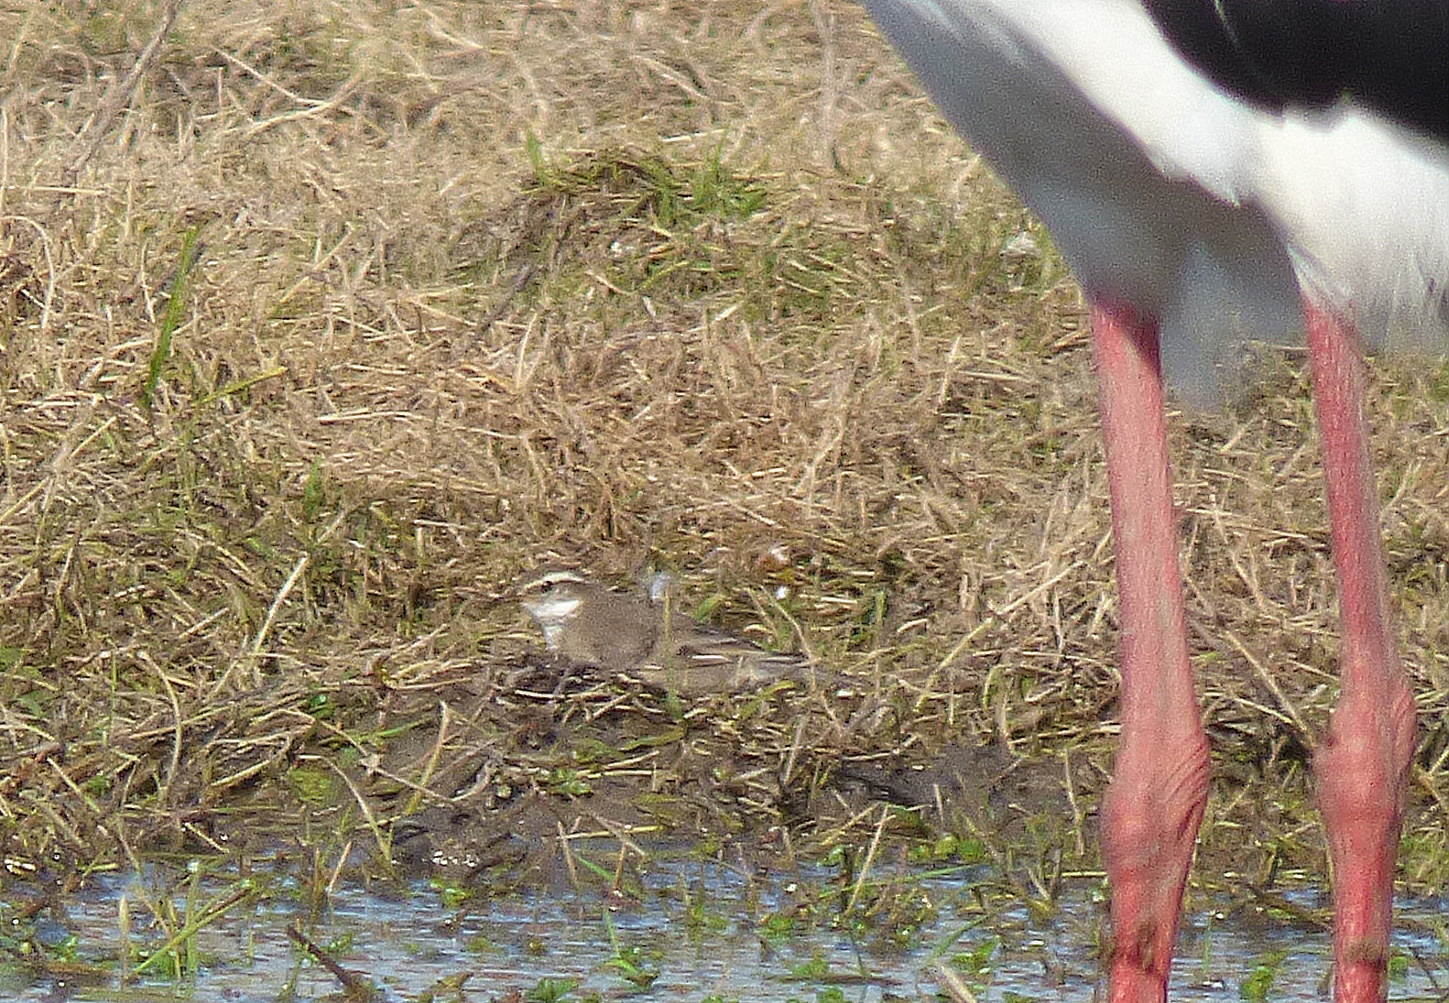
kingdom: Animalia
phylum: Chordata
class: Aves
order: Passeriformes
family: Furnariidae
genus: Cinclodes
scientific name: Cinclodes fuscus
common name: Buff-winged cinclodes
